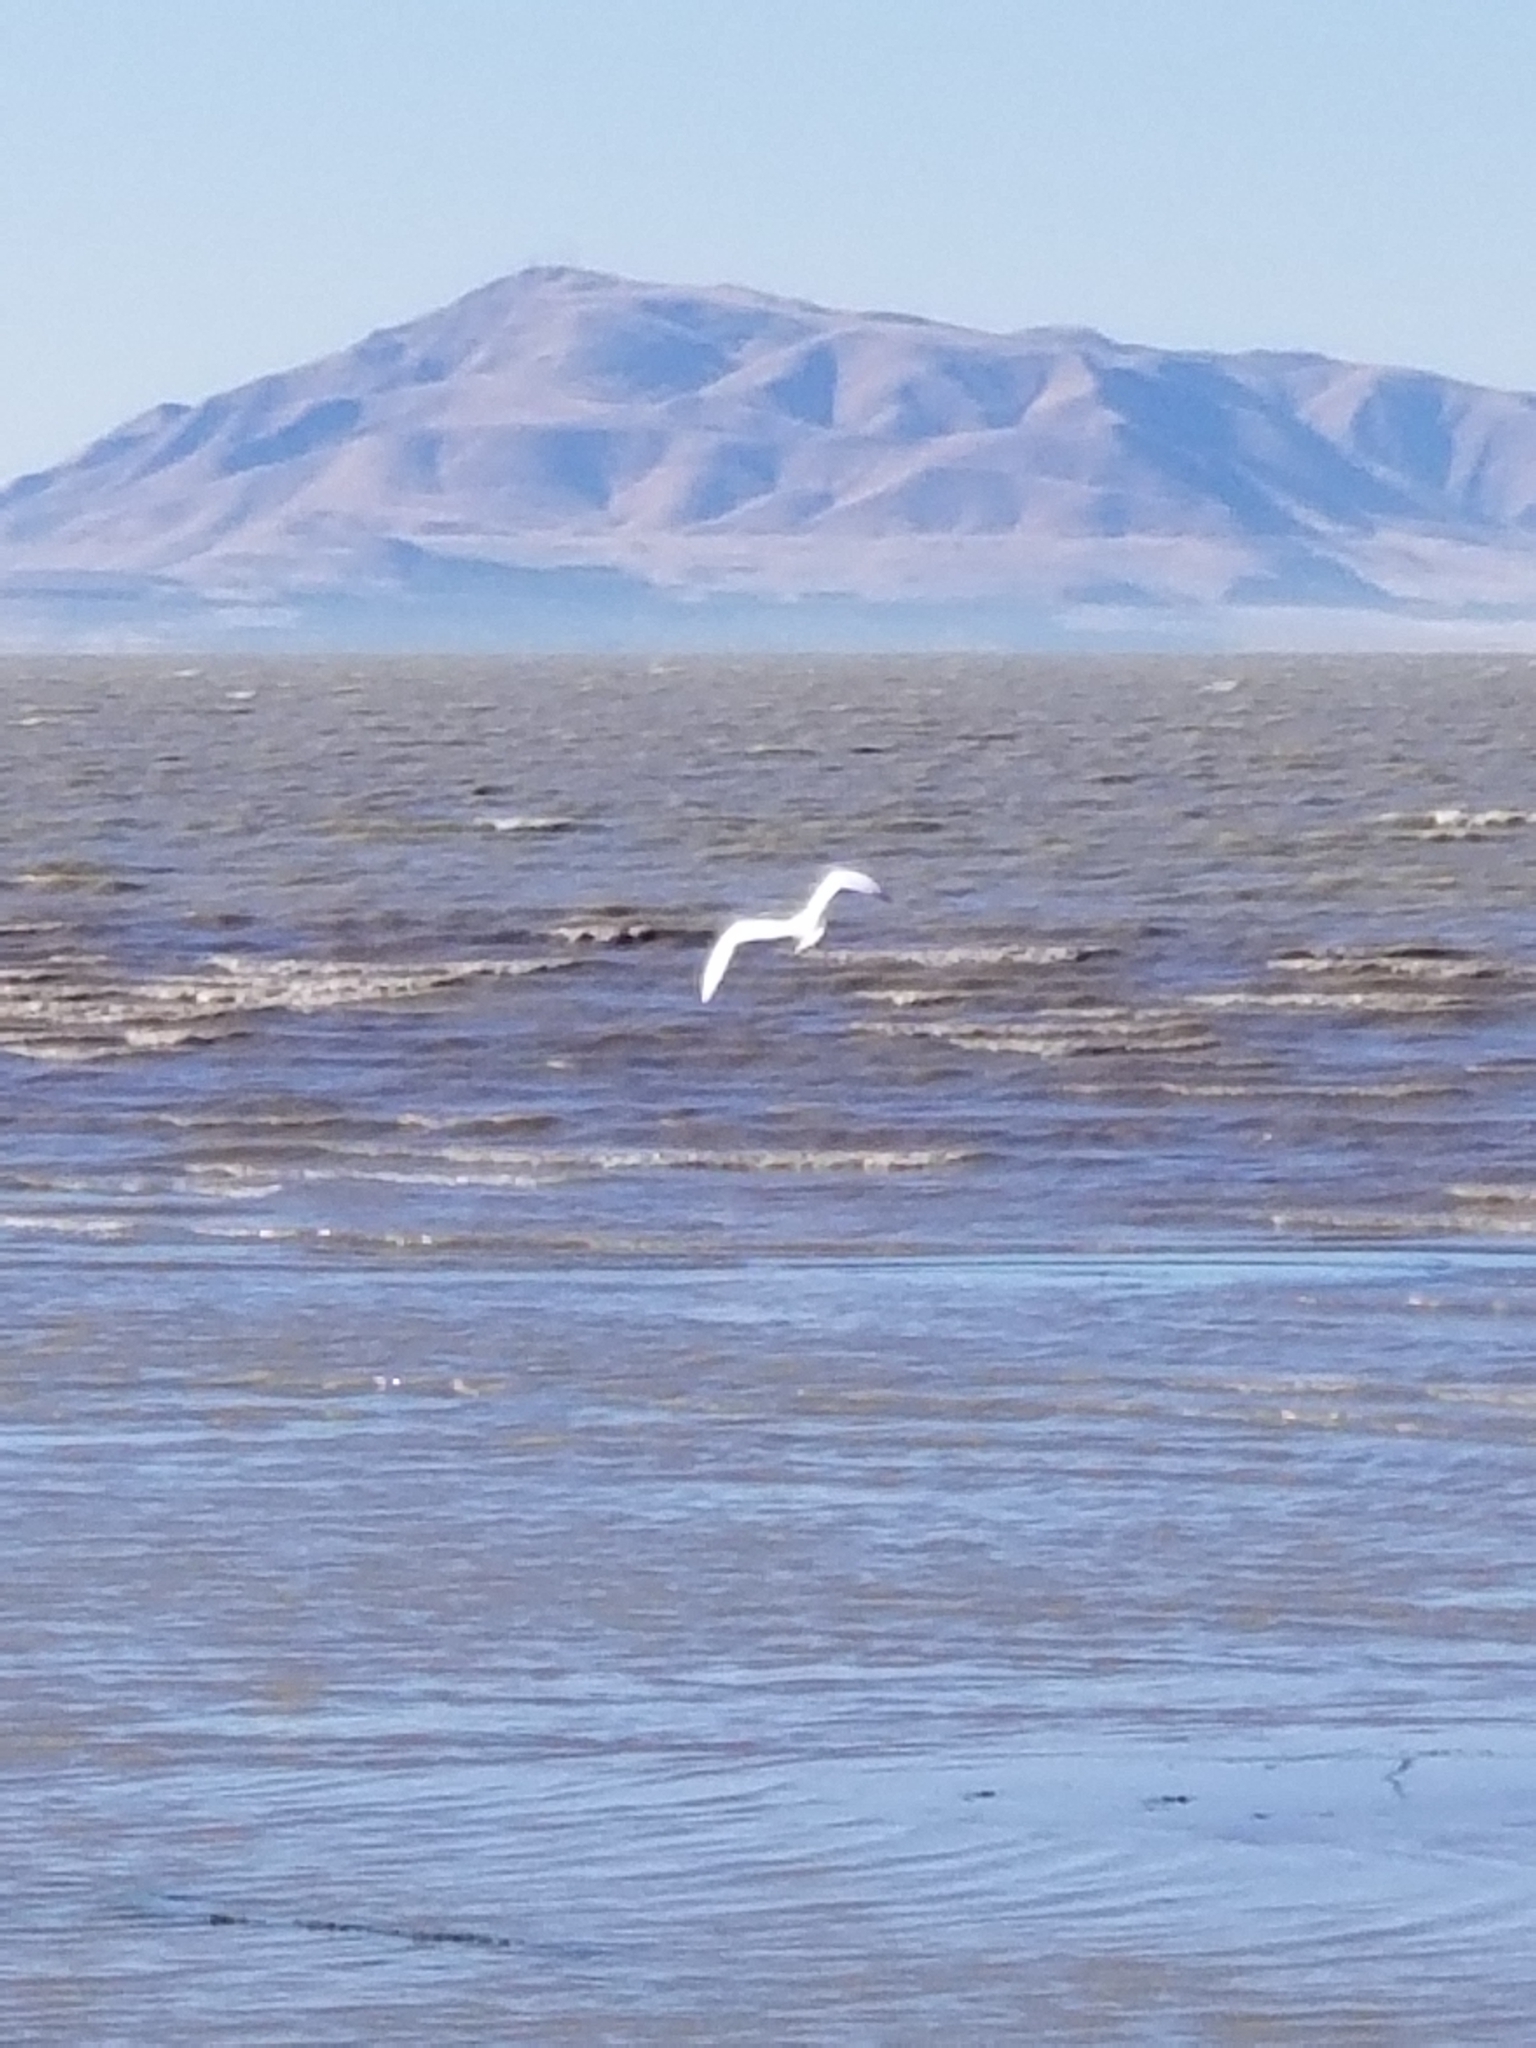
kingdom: Animalia
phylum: Chordata
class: Aves
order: Pelecaniformes
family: Ardeidae
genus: Ardea
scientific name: Ardea alba
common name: Great egret
